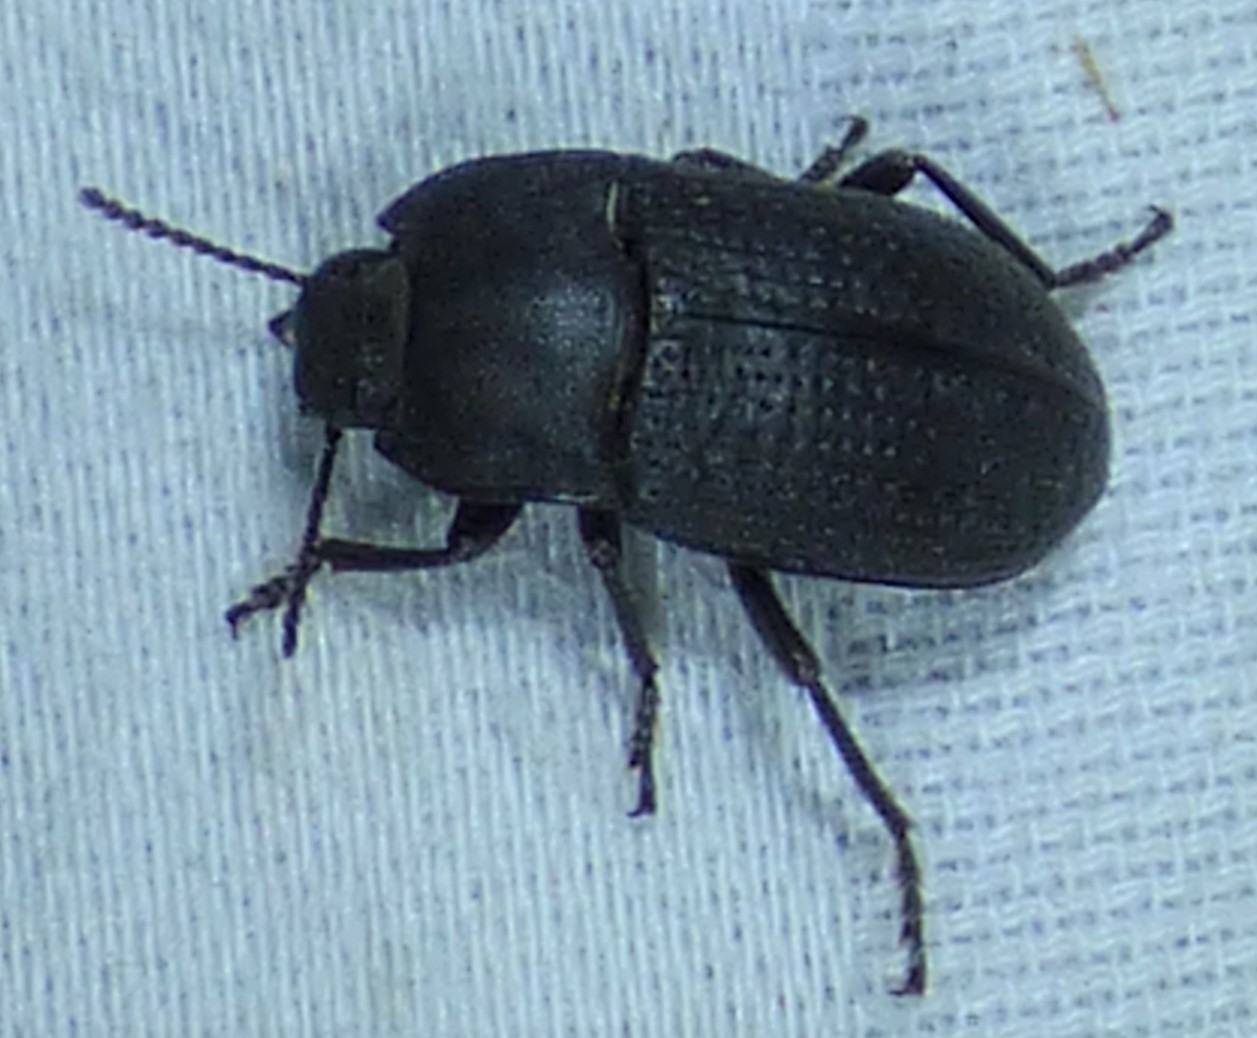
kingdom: Animalia
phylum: Arthropoda
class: Insecta
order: Coleoptera
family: Tenebrionidae
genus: Asiopus
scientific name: Asiopus
